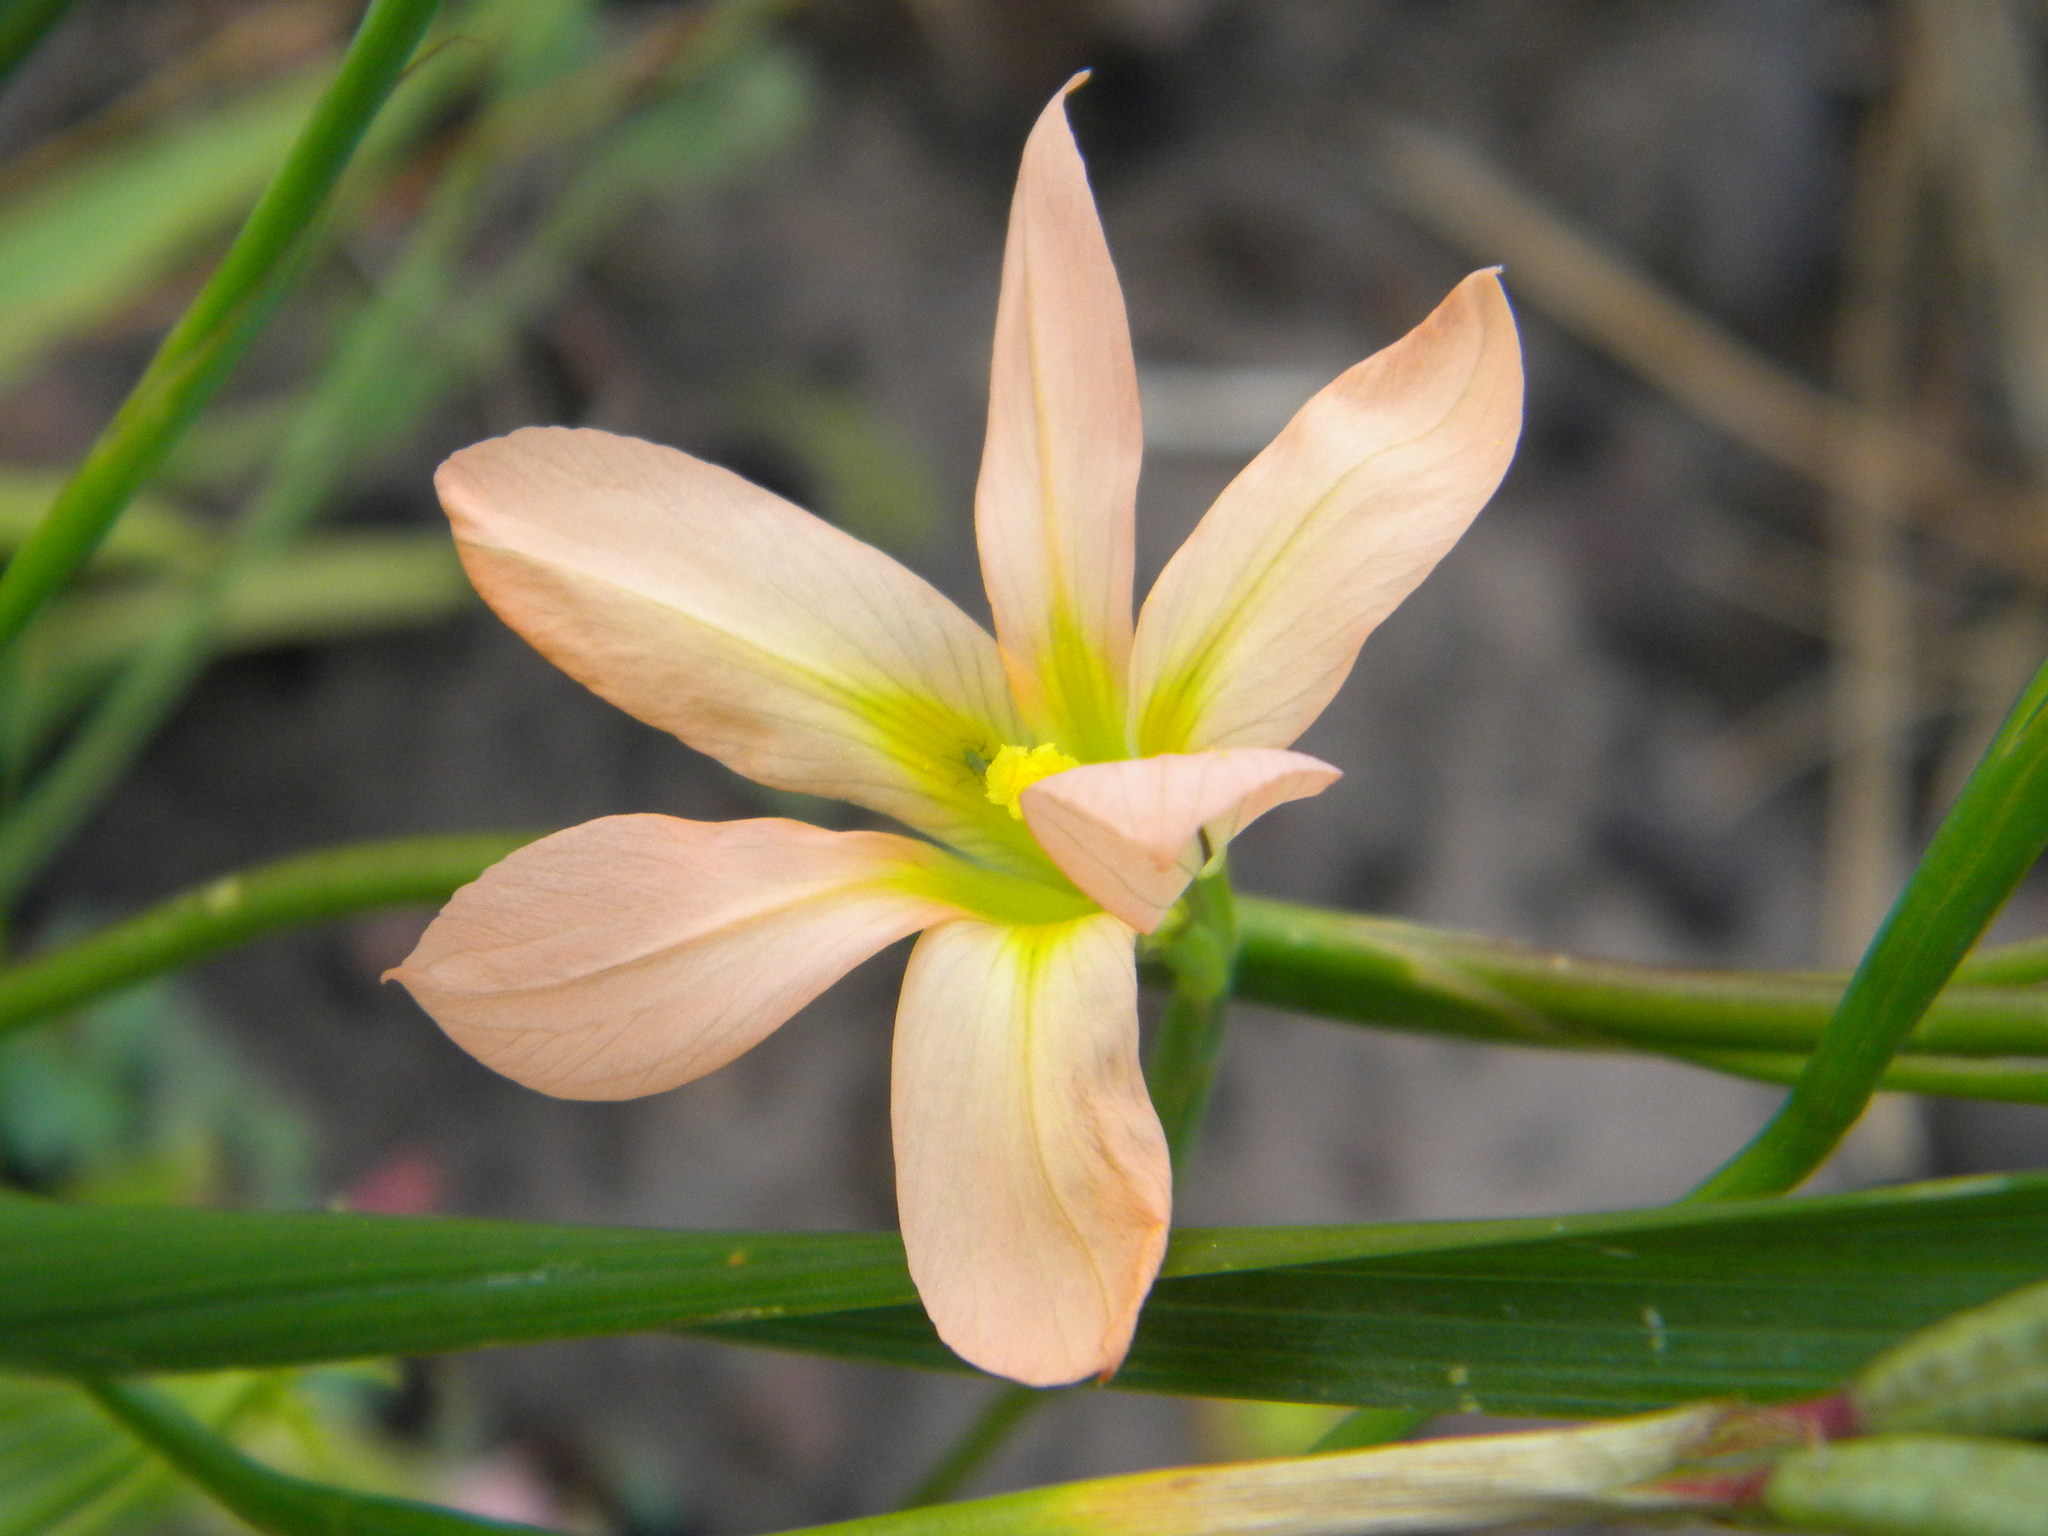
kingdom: Plantae
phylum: Tracheophyta
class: Liliopsida
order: Asparagales
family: Iridaceae
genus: Moraea
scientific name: Moraea flaccida
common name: One-leaf cape-tulip
